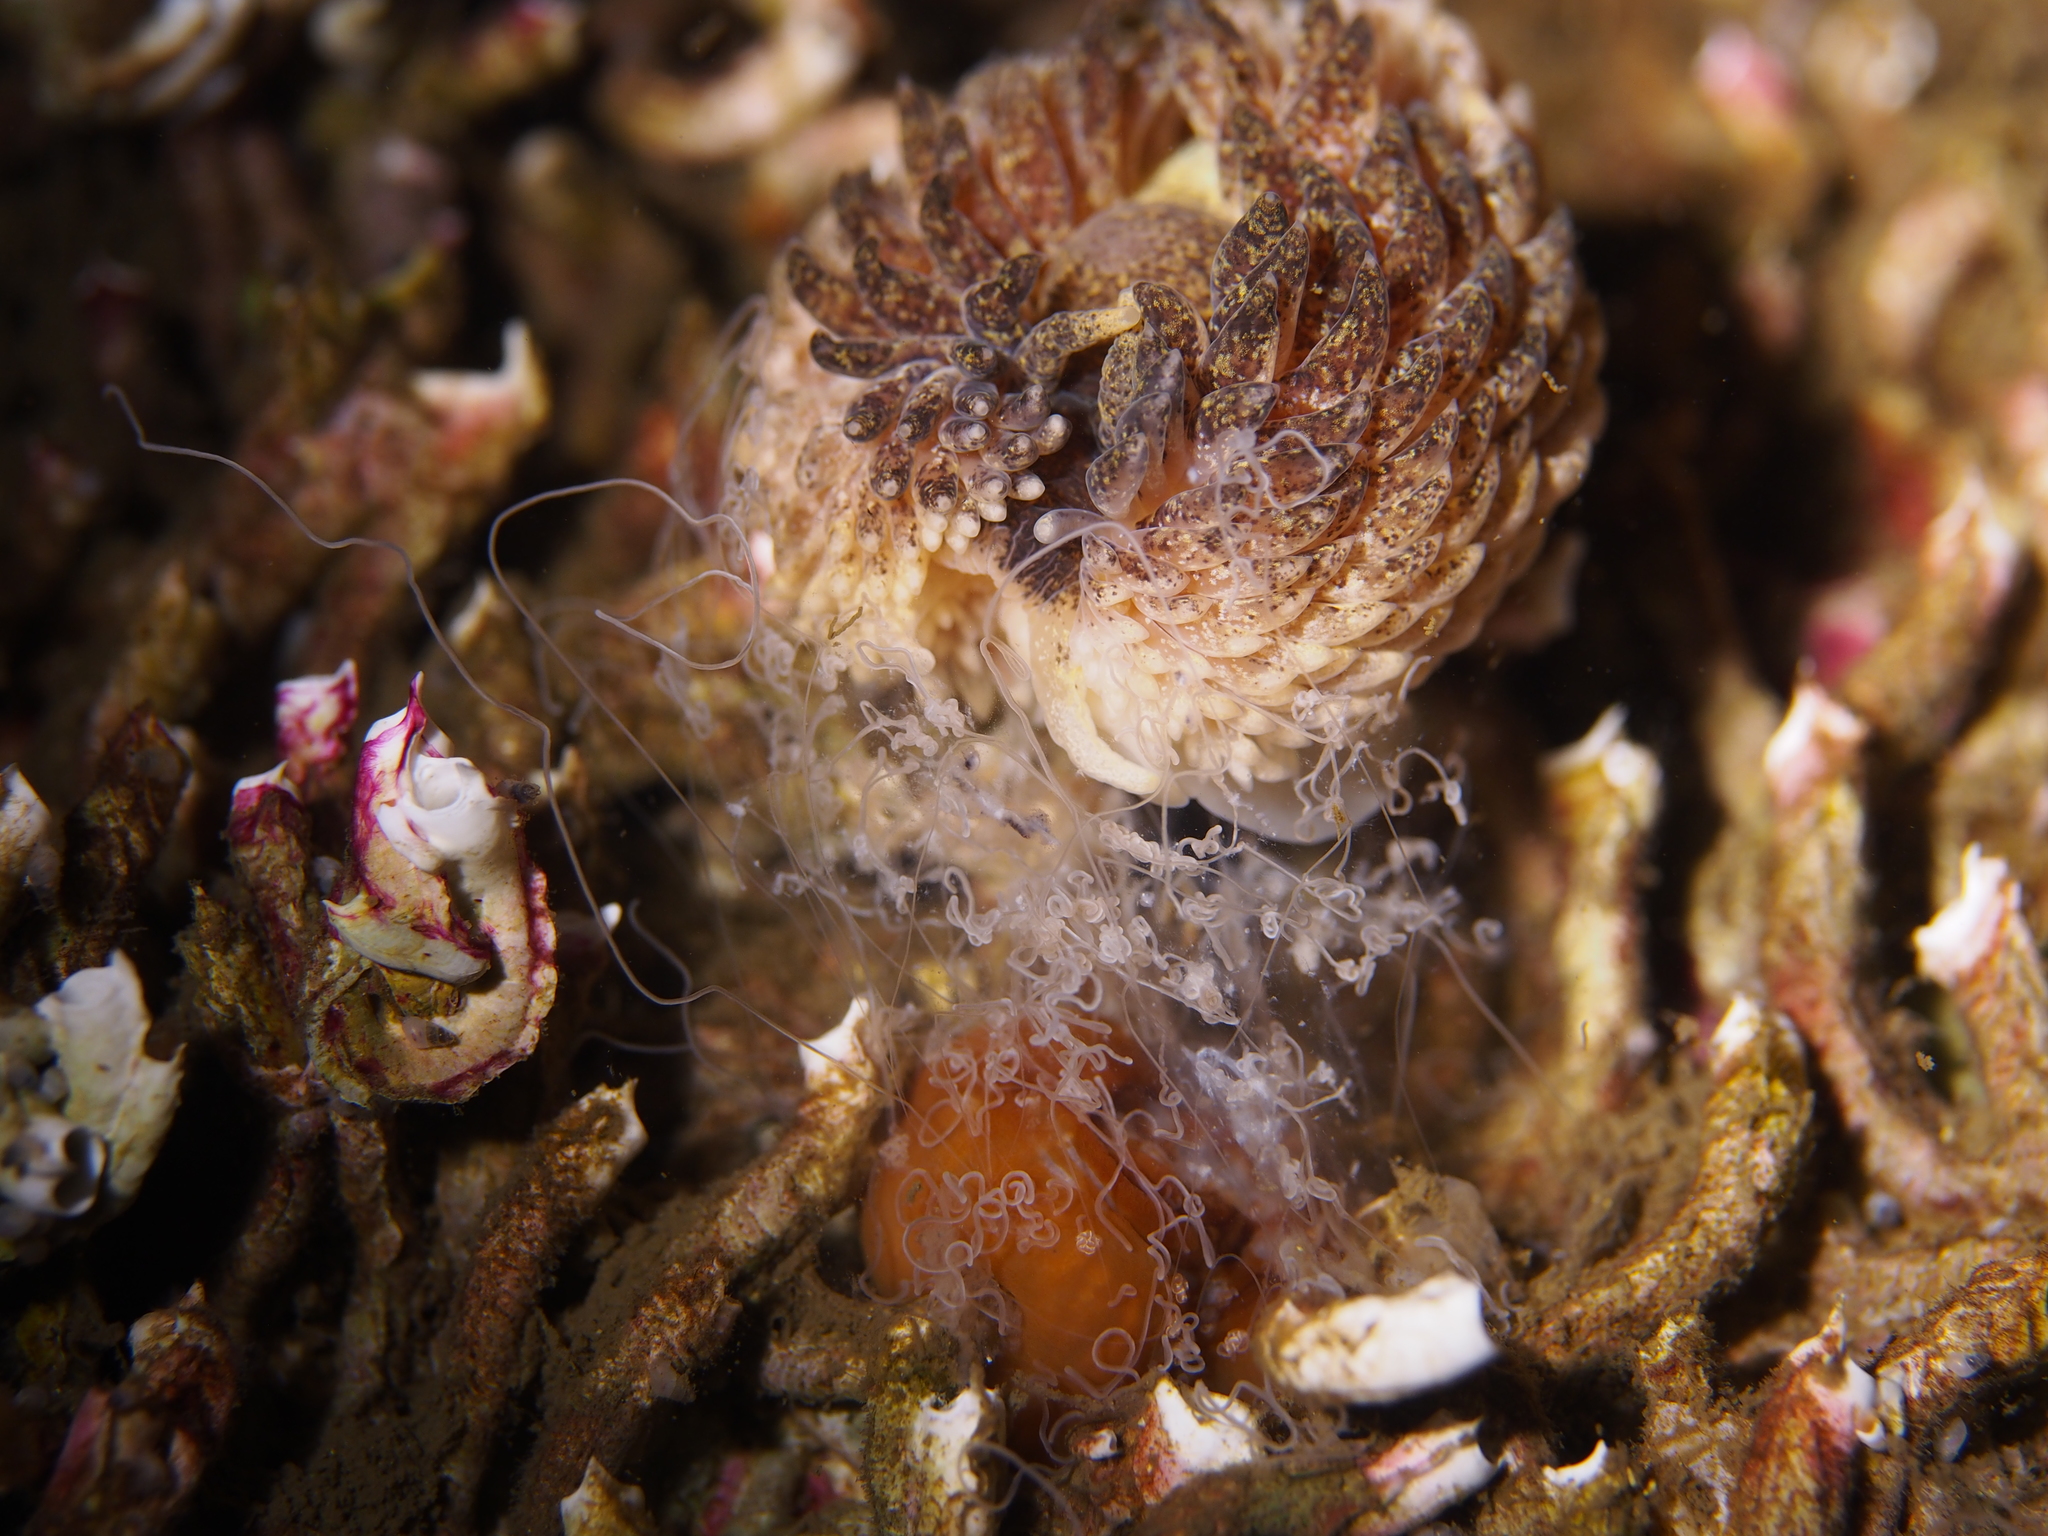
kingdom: Animalia
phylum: Mollusca
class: Gastropoda
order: Nudibranchia
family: Aeolidiidae
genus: Aeolidia
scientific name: Aeolidia papillosa
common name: Common grey sea slug
